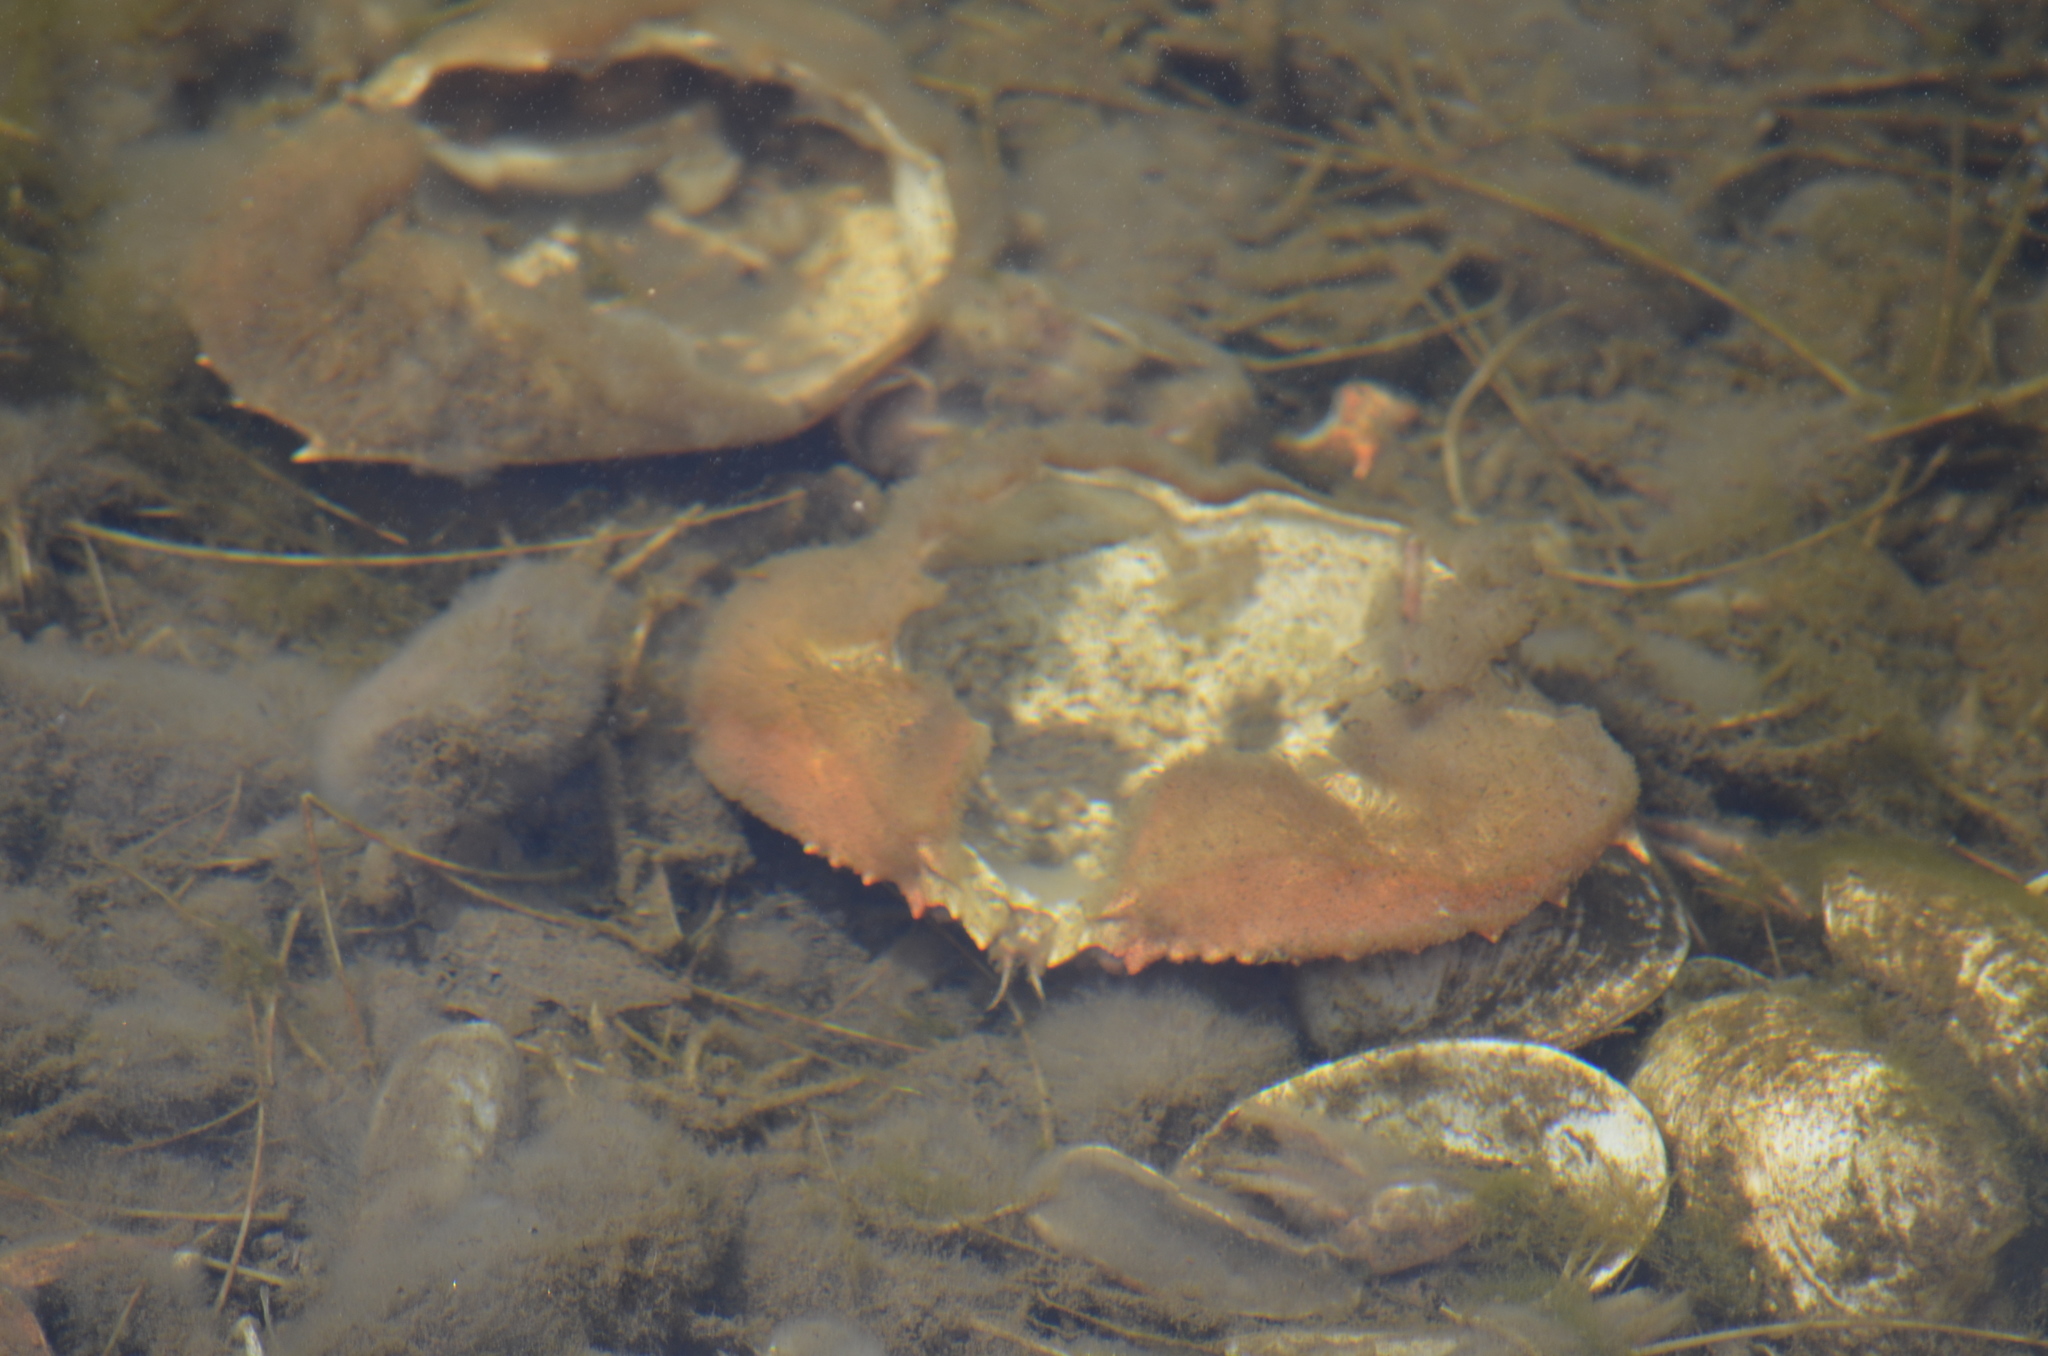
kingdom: Animalia
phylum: Arthropoda
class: Malacostraca
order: Decapoda
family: Cancridae
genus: Metacarcinus
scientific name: Metacarcinus magister
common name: Californian crab
